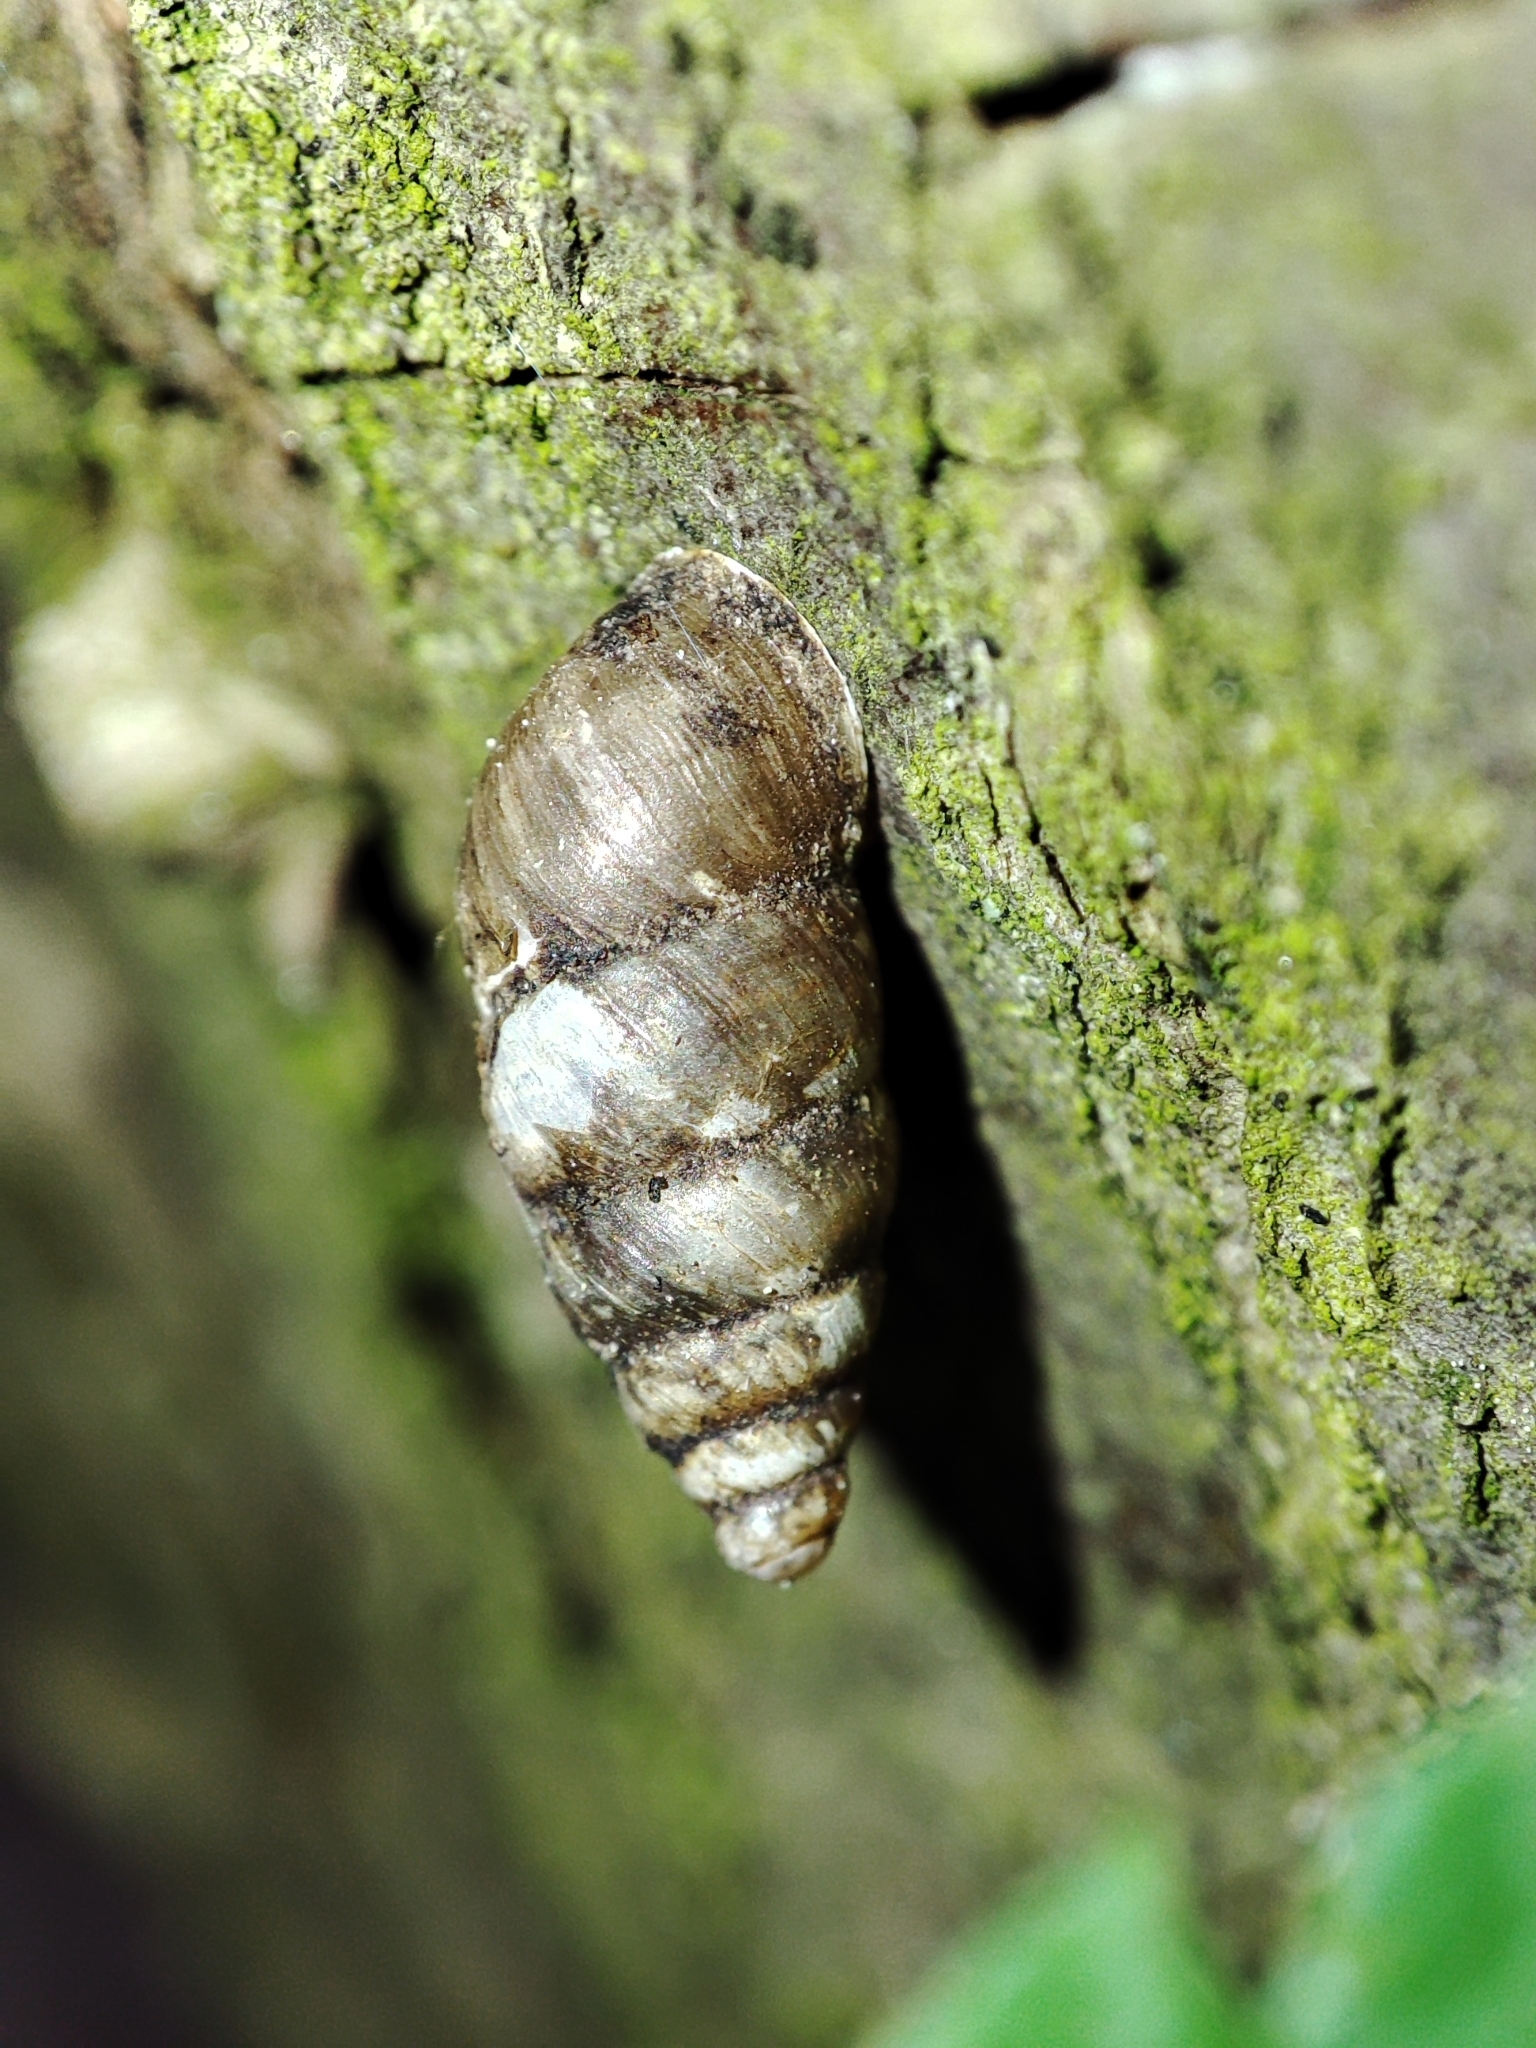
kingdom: Animalia
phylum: Mollusca
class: Gastropoda
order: Stylommatophora
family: Enidae
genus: Merdigera
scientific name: Merdigera obscura
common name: Lesser bulin
